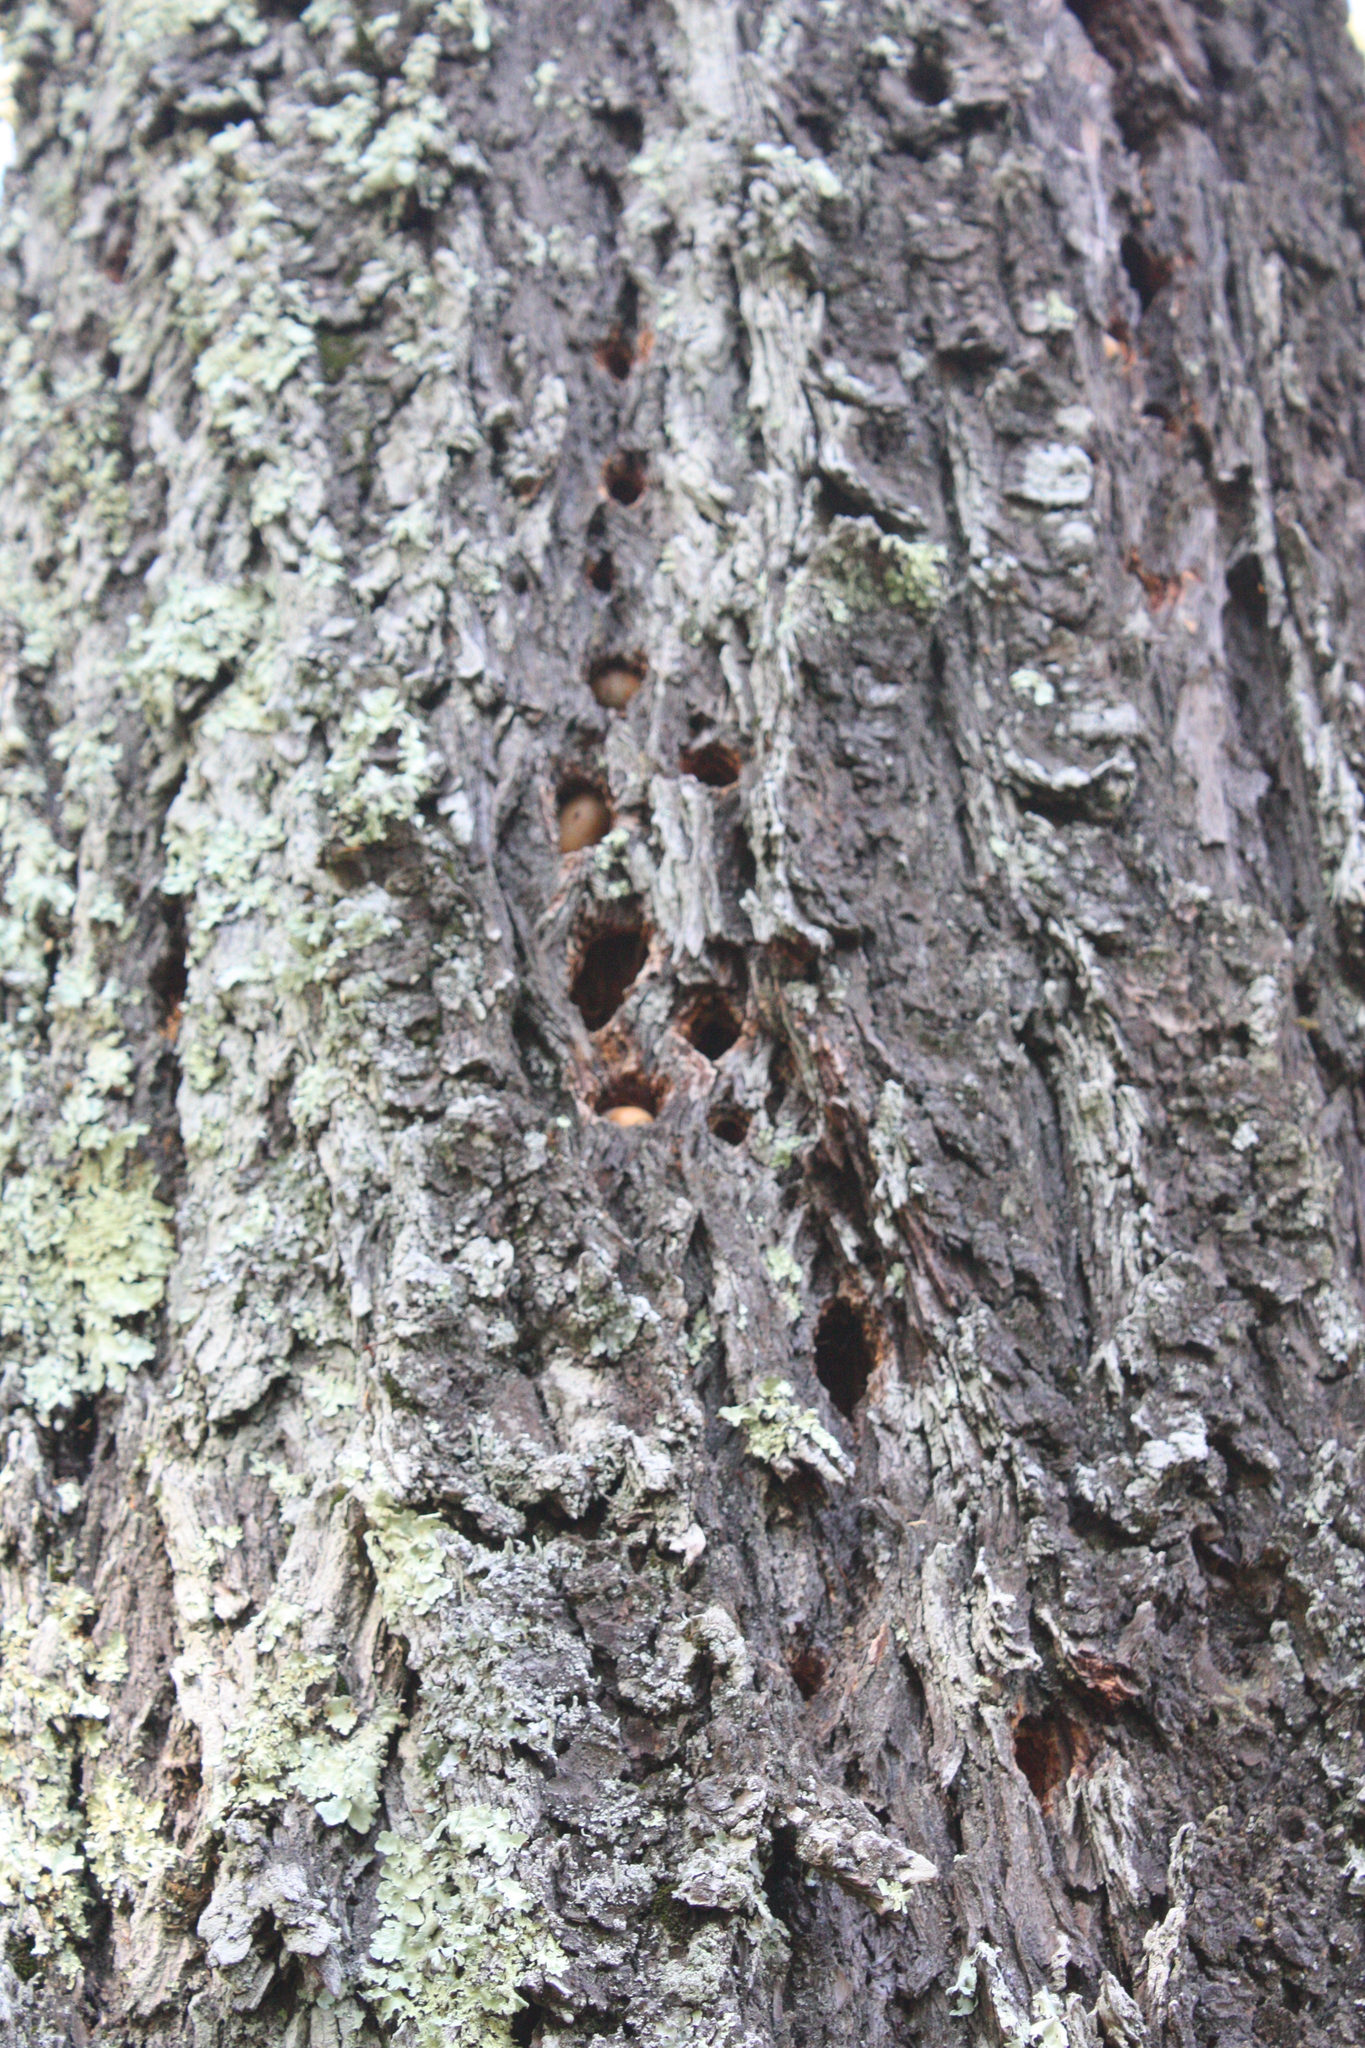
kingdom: Animalia
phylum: Chordata
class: Aves
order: Piciformes
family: Picidae
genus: Melanerpes
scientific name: Melanerpes formicivorus
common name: Acorn woodpecker
